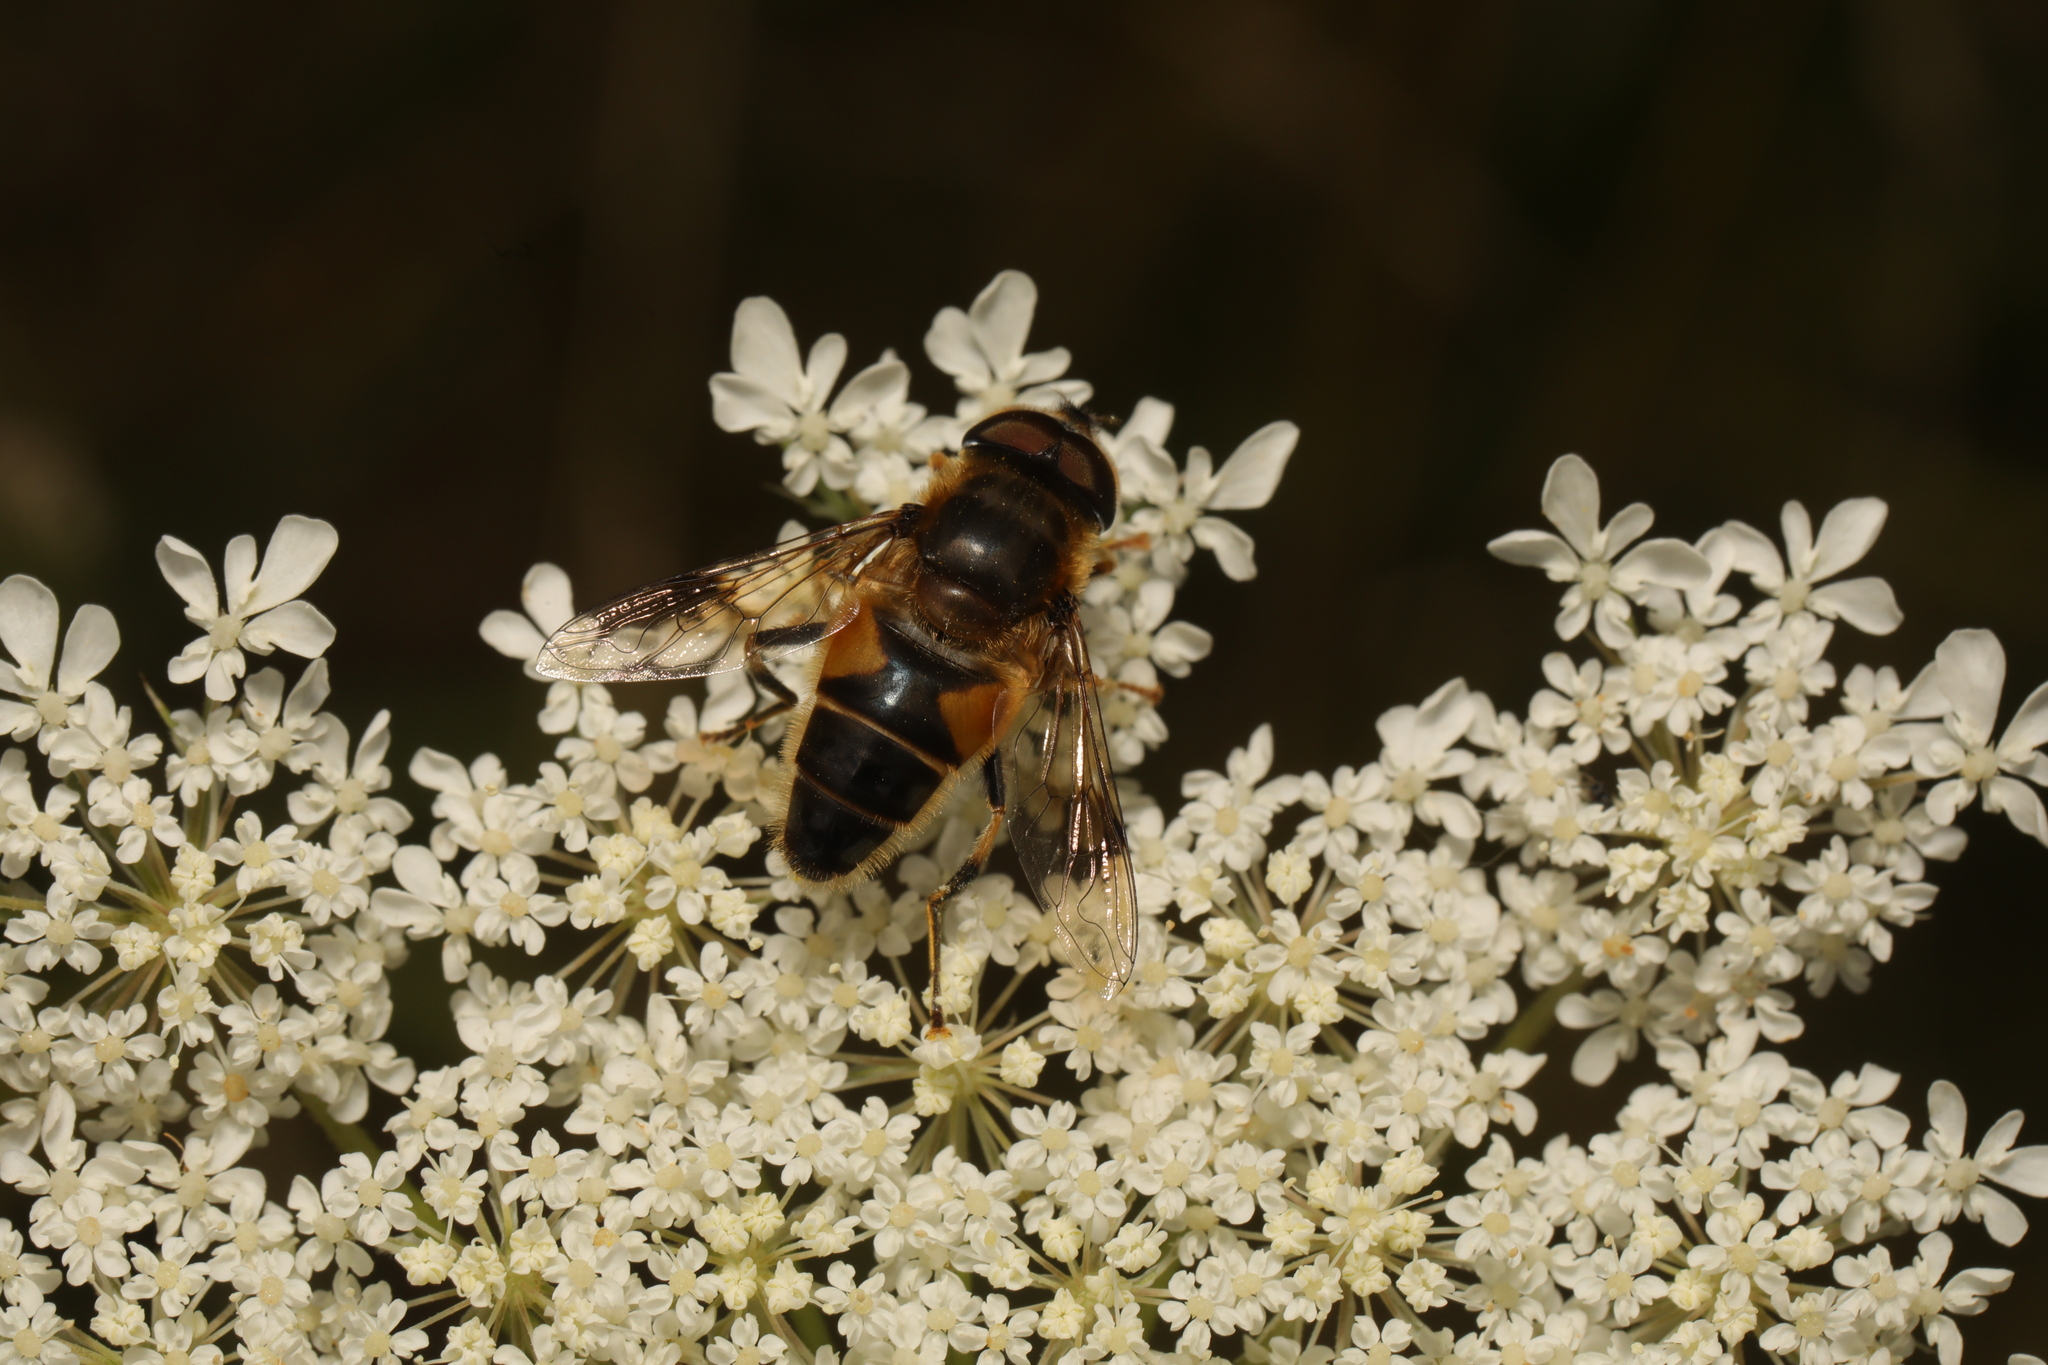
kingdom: Animalia
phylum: Arthropoda
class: Insecta
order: Diptera
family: Syrphidae
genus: Eristalis
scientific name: Eristalis pertinax
